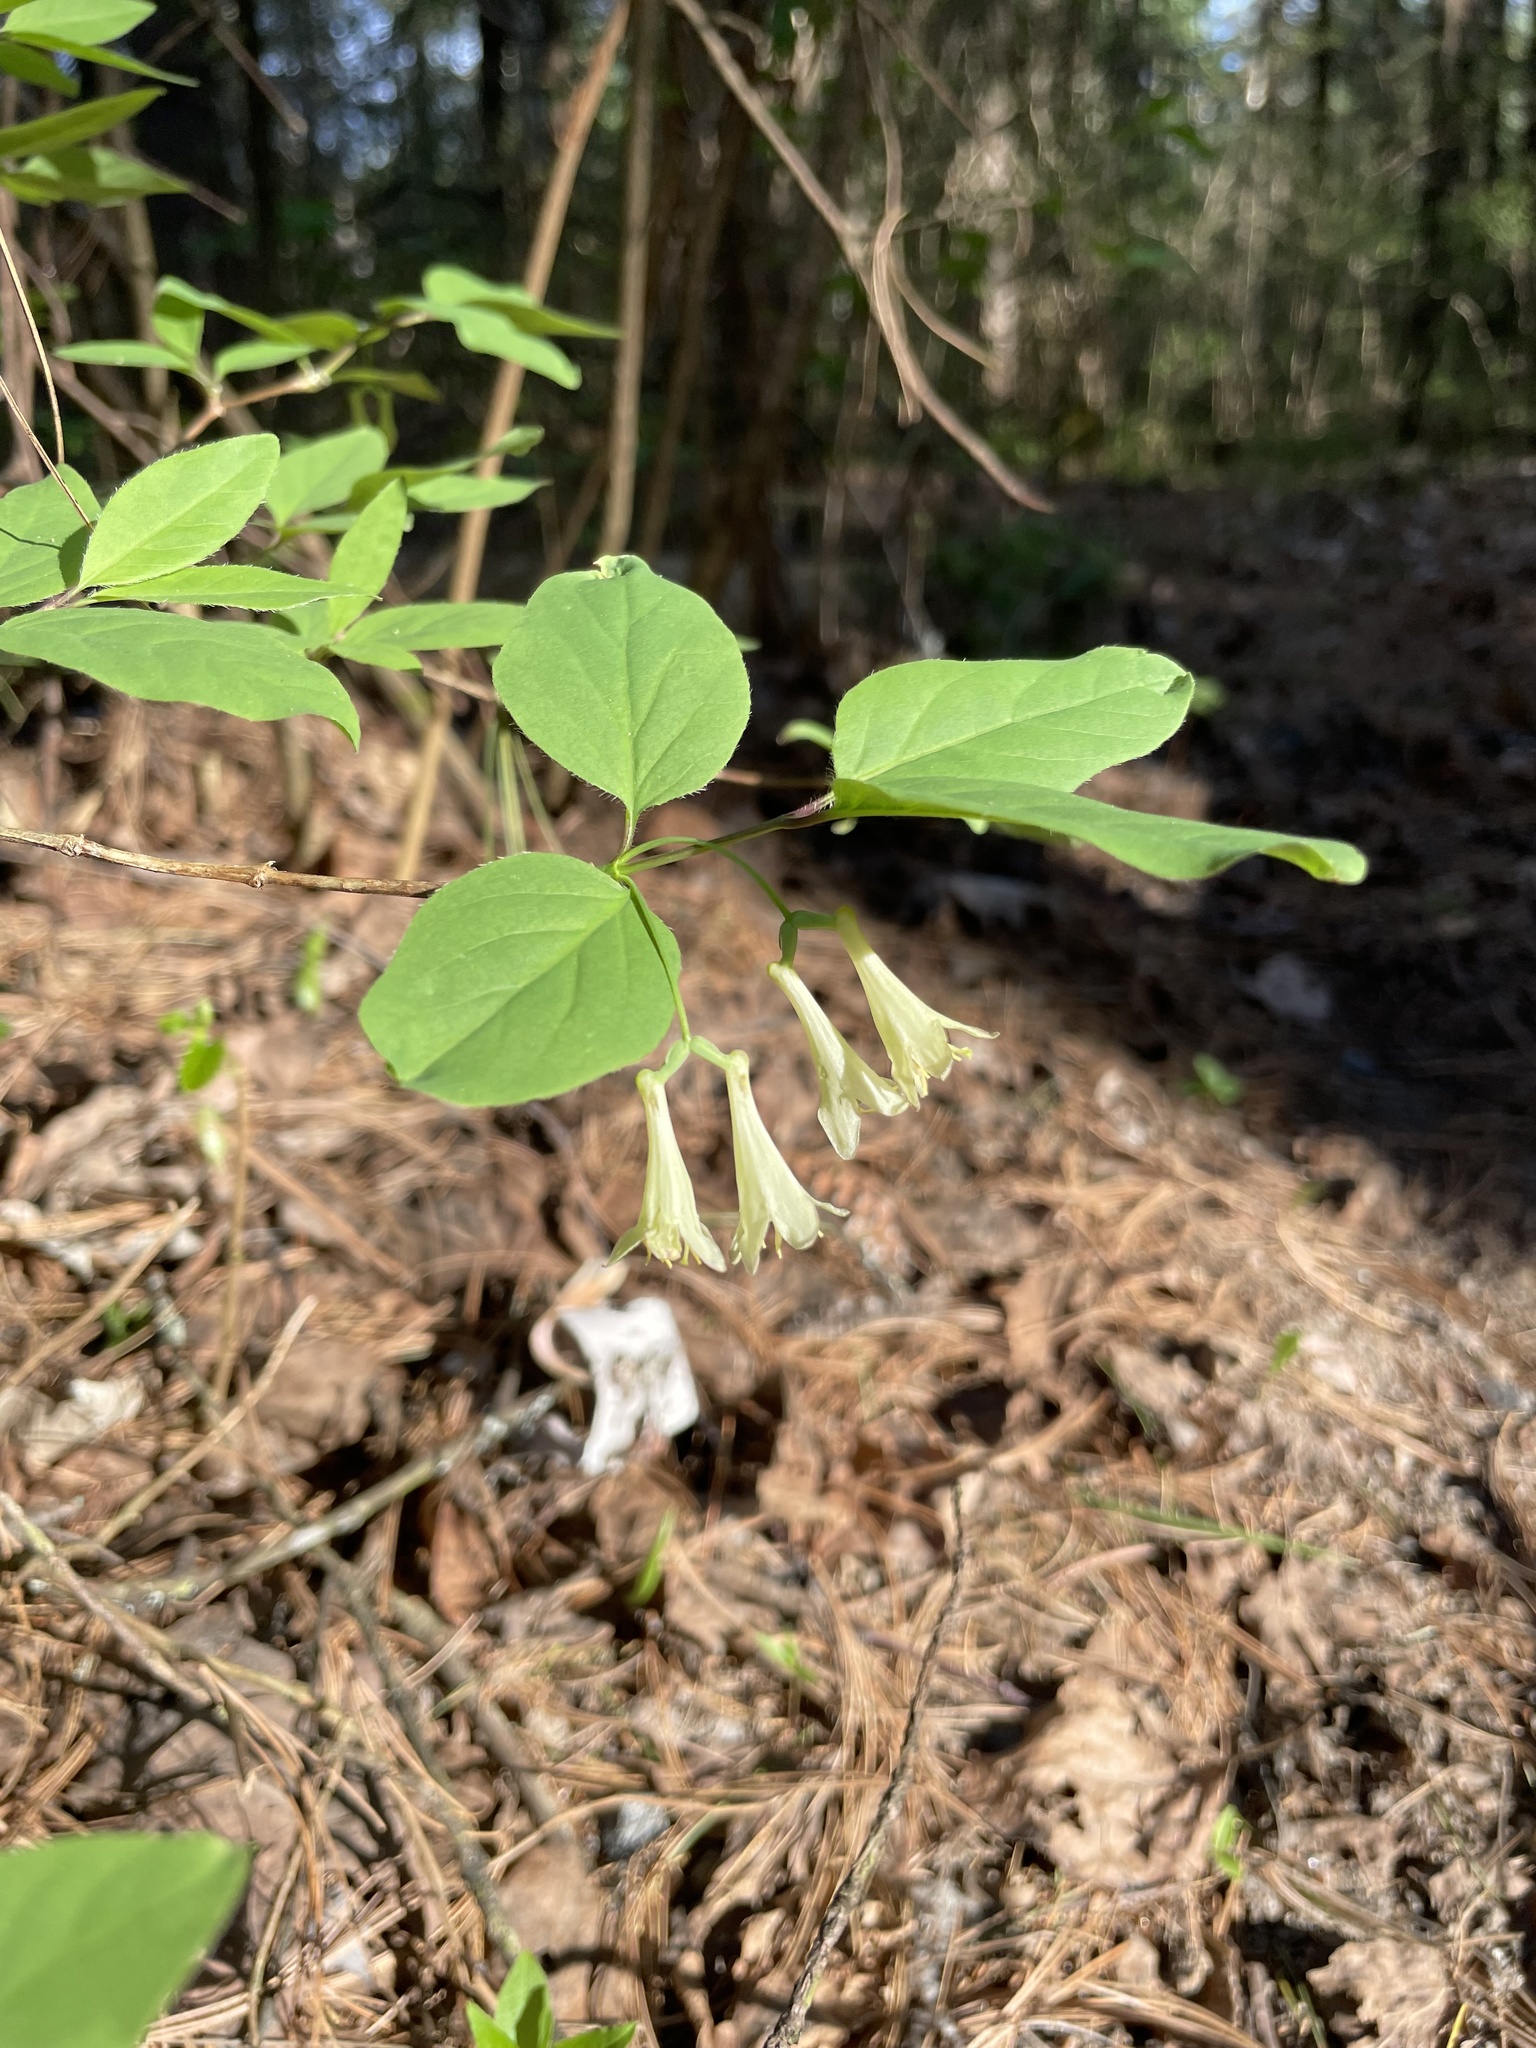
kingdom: Plantae
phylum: Tracheophyta
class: Magnoliopsida
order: Dipsacales
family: Caprifoliaceae
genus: Lonicera
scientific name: Lonicera canadensis
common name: American fly-honeysuckle
